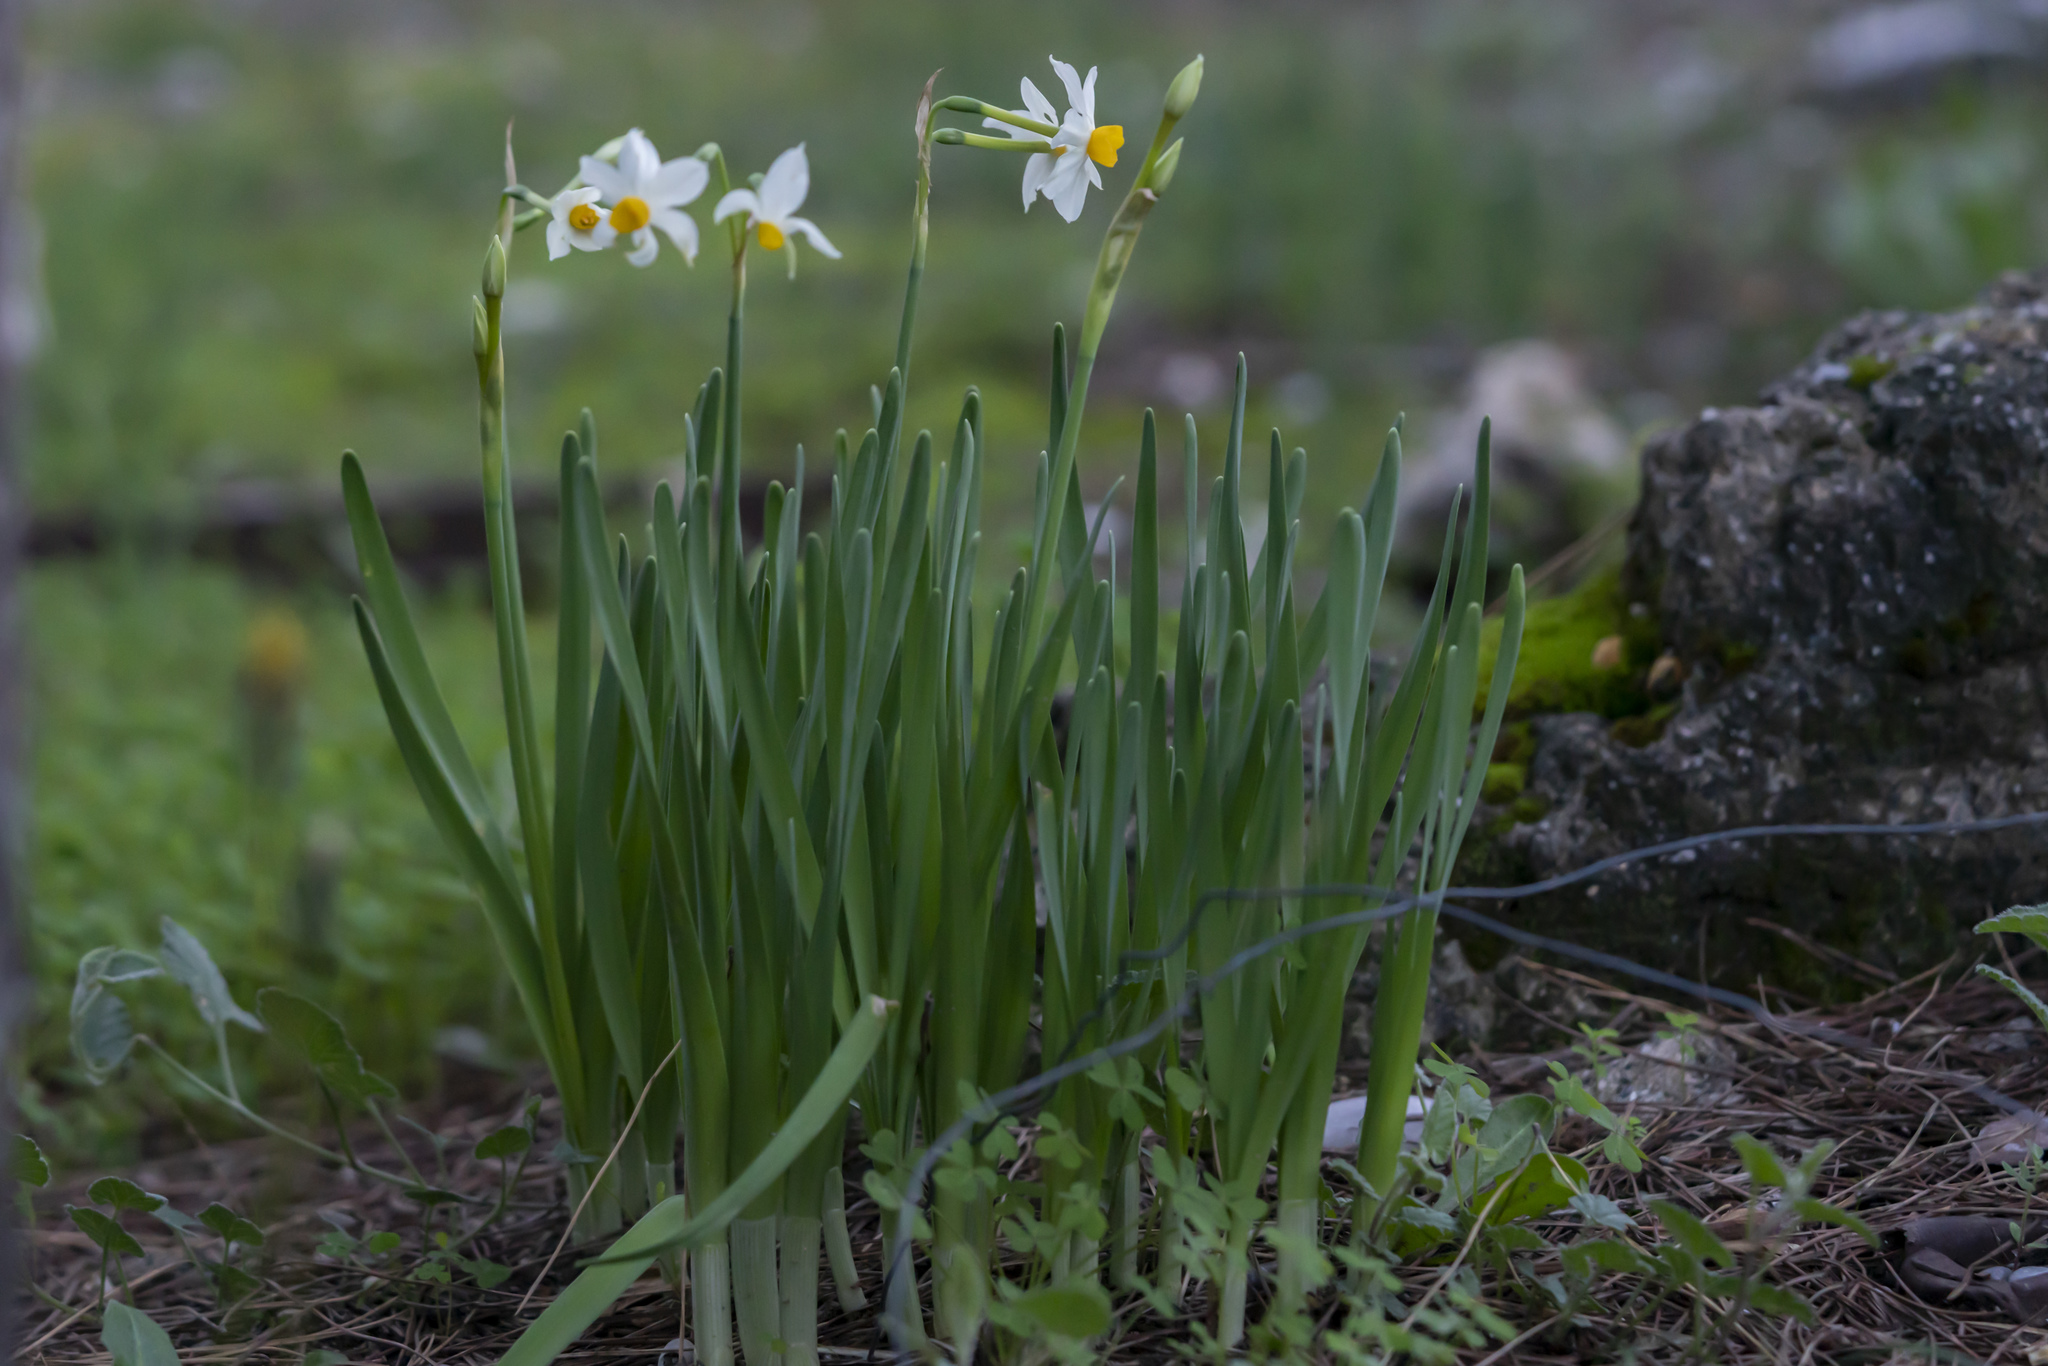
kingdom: Plantae
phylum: Tracheophyta
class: Liliopsida
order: Asparagales
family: Amaryllidaceae
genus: Narcissus
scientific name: Narcissus tazetta
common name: Bunch-flowered daffodil
